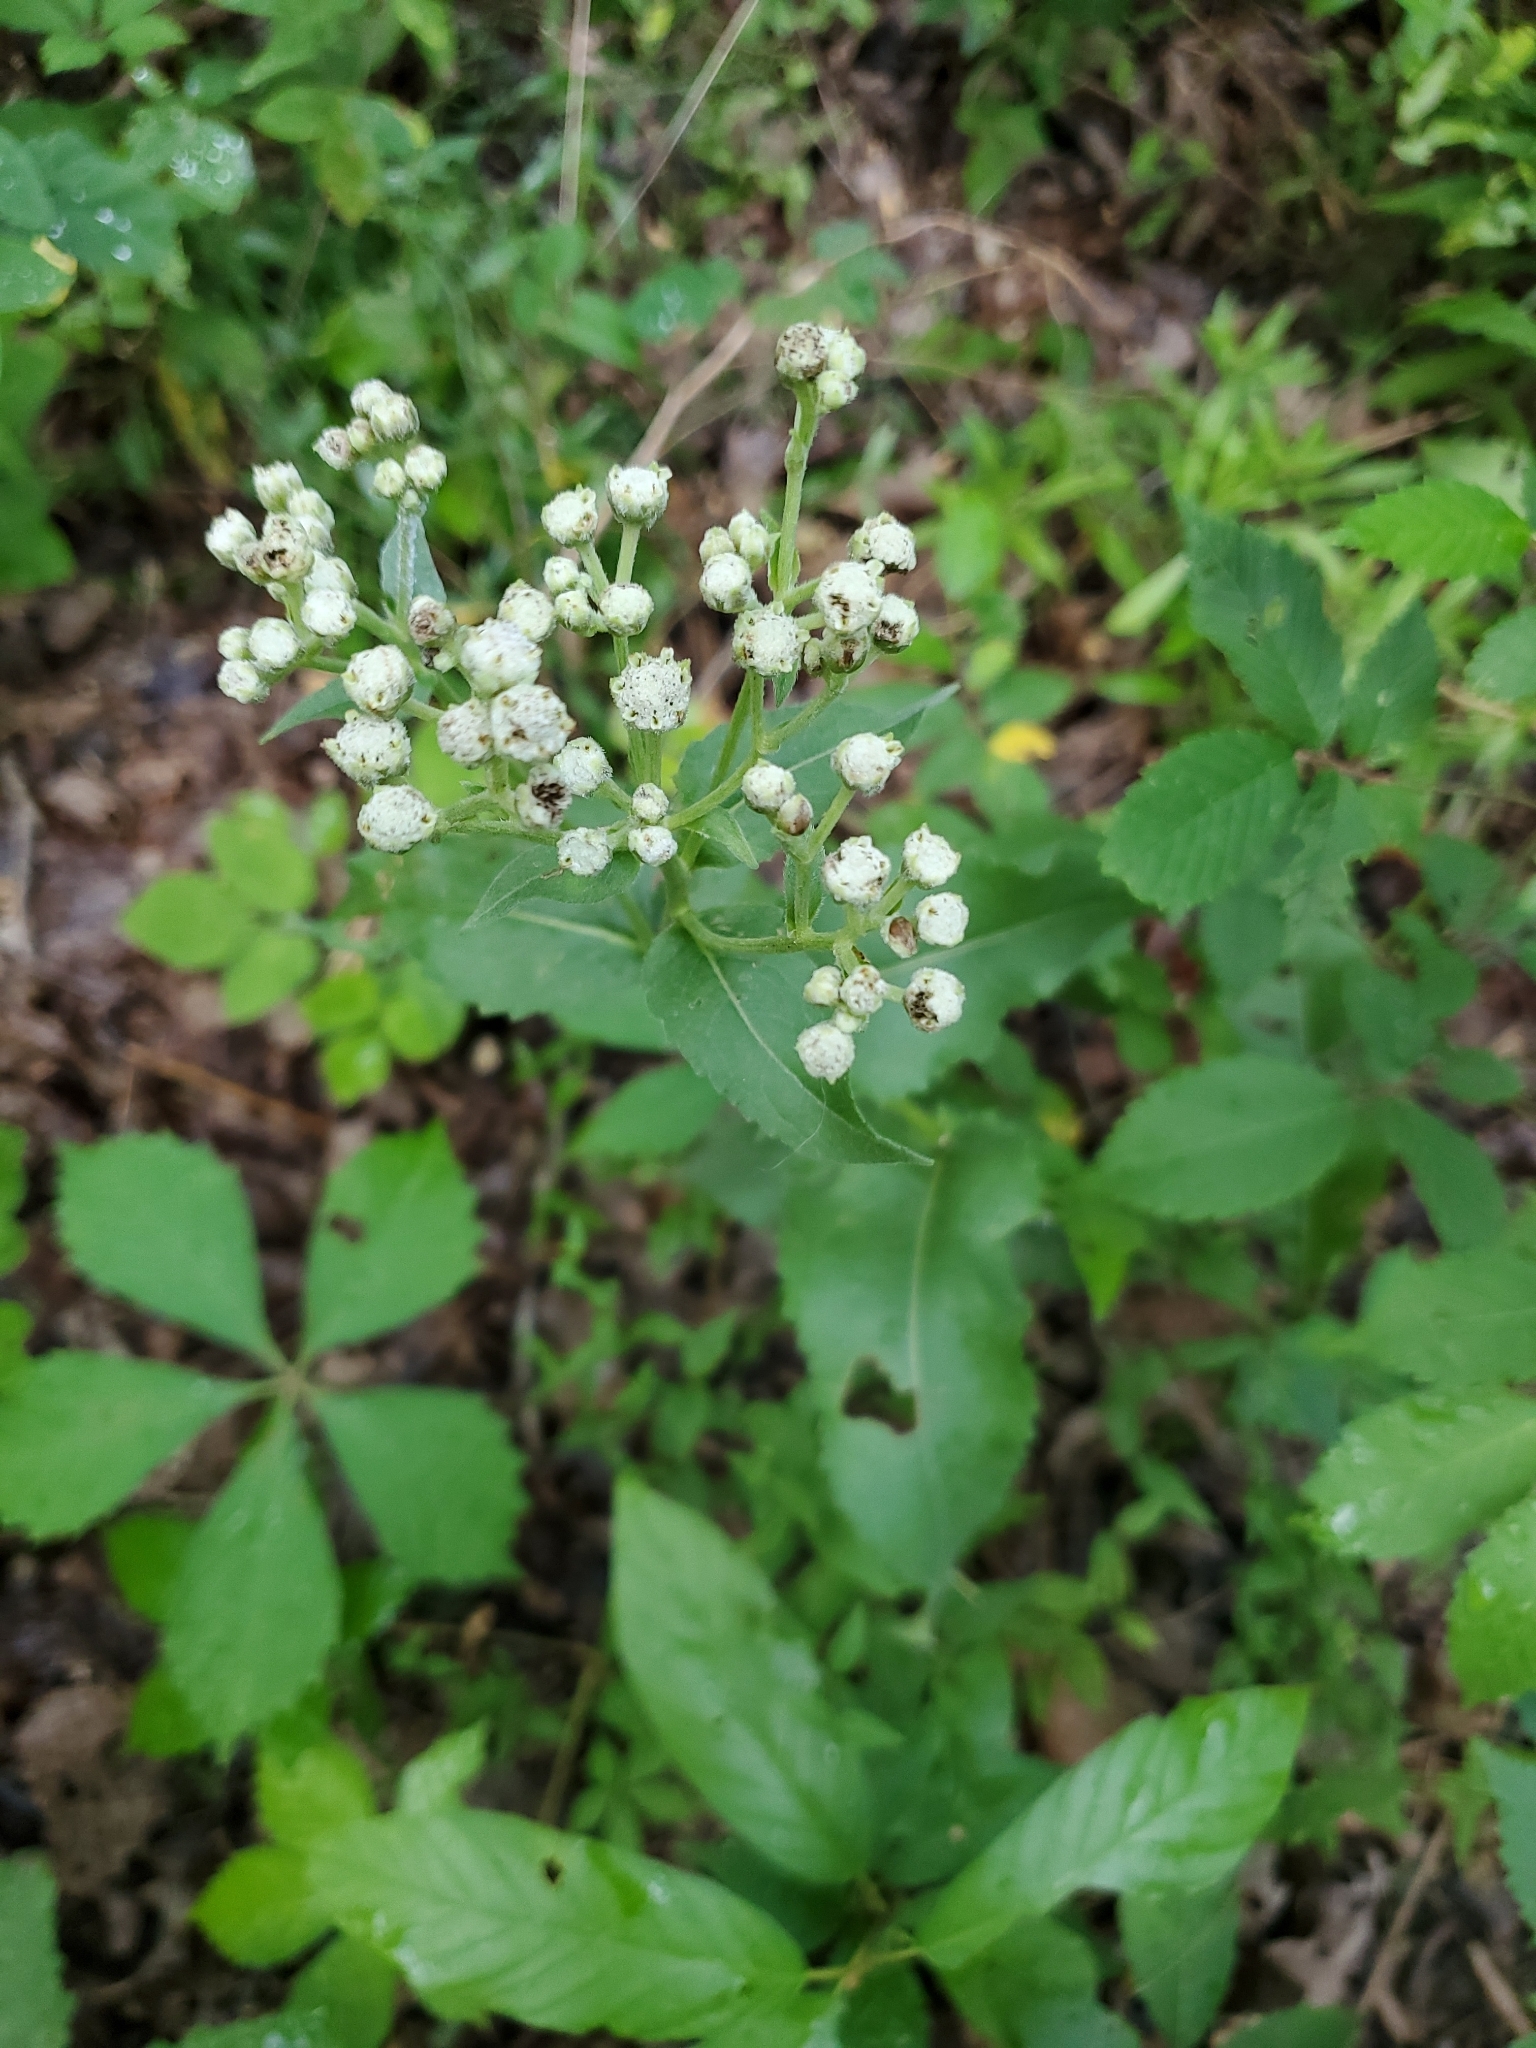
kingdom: Plantae
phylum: Tracheophyta
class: Magnoliopsida
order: Asterales
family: Asteraceae
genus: Parthenium
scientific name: Parthenium integrifolium
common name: American feverfew
